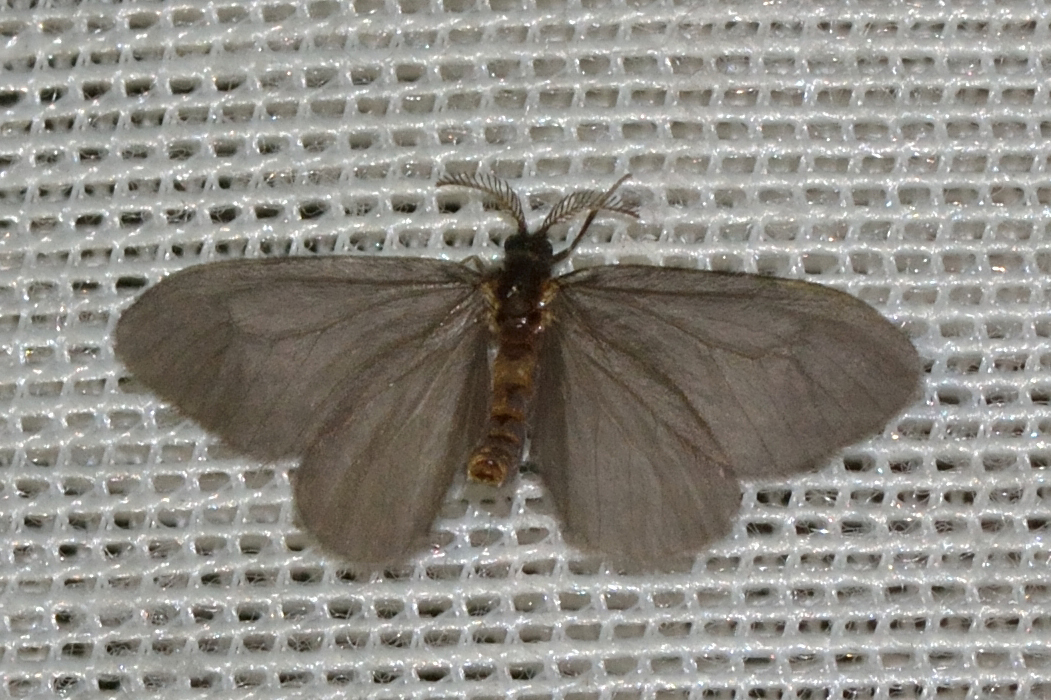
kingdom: Animalia
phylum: Arthropoda
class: Insecta
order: Lepidoptera
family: Psychidae
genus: Sterrhopterix
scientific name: Sterrhopterix fusca
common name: Brown sweep
